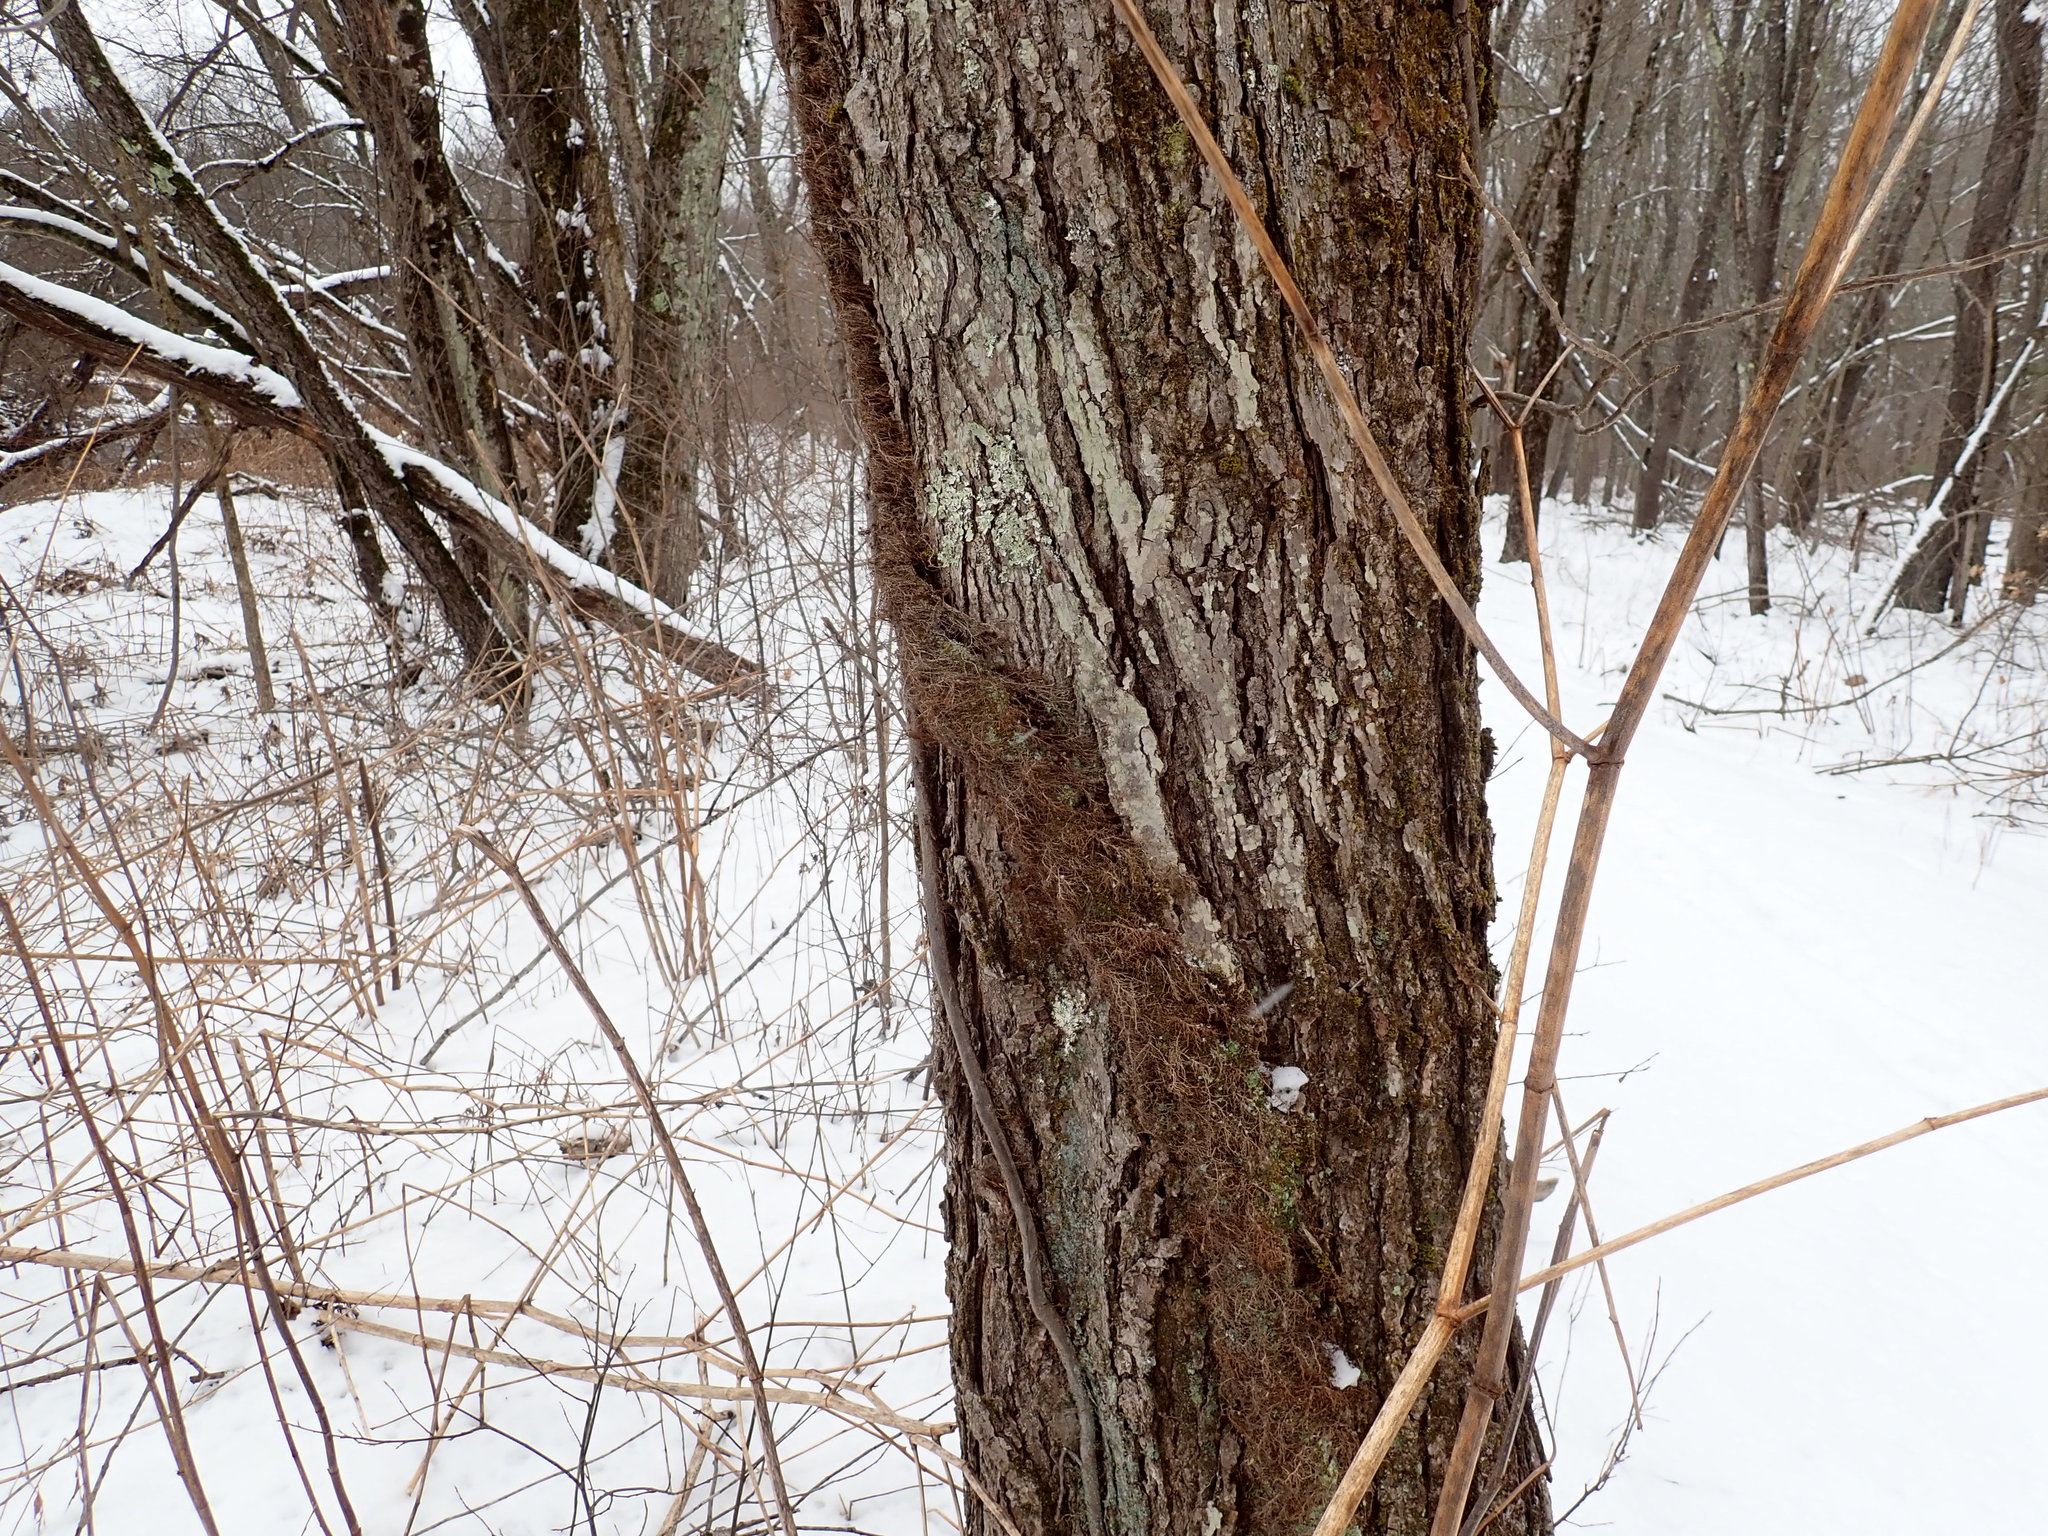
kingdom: Plantae
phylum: Tracheophyta
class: Magnoliopsida
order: Sapindales
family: Anacardiaceae
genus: Toxicodendron
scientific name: Toxicodendron radicans
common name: Poison ivy
